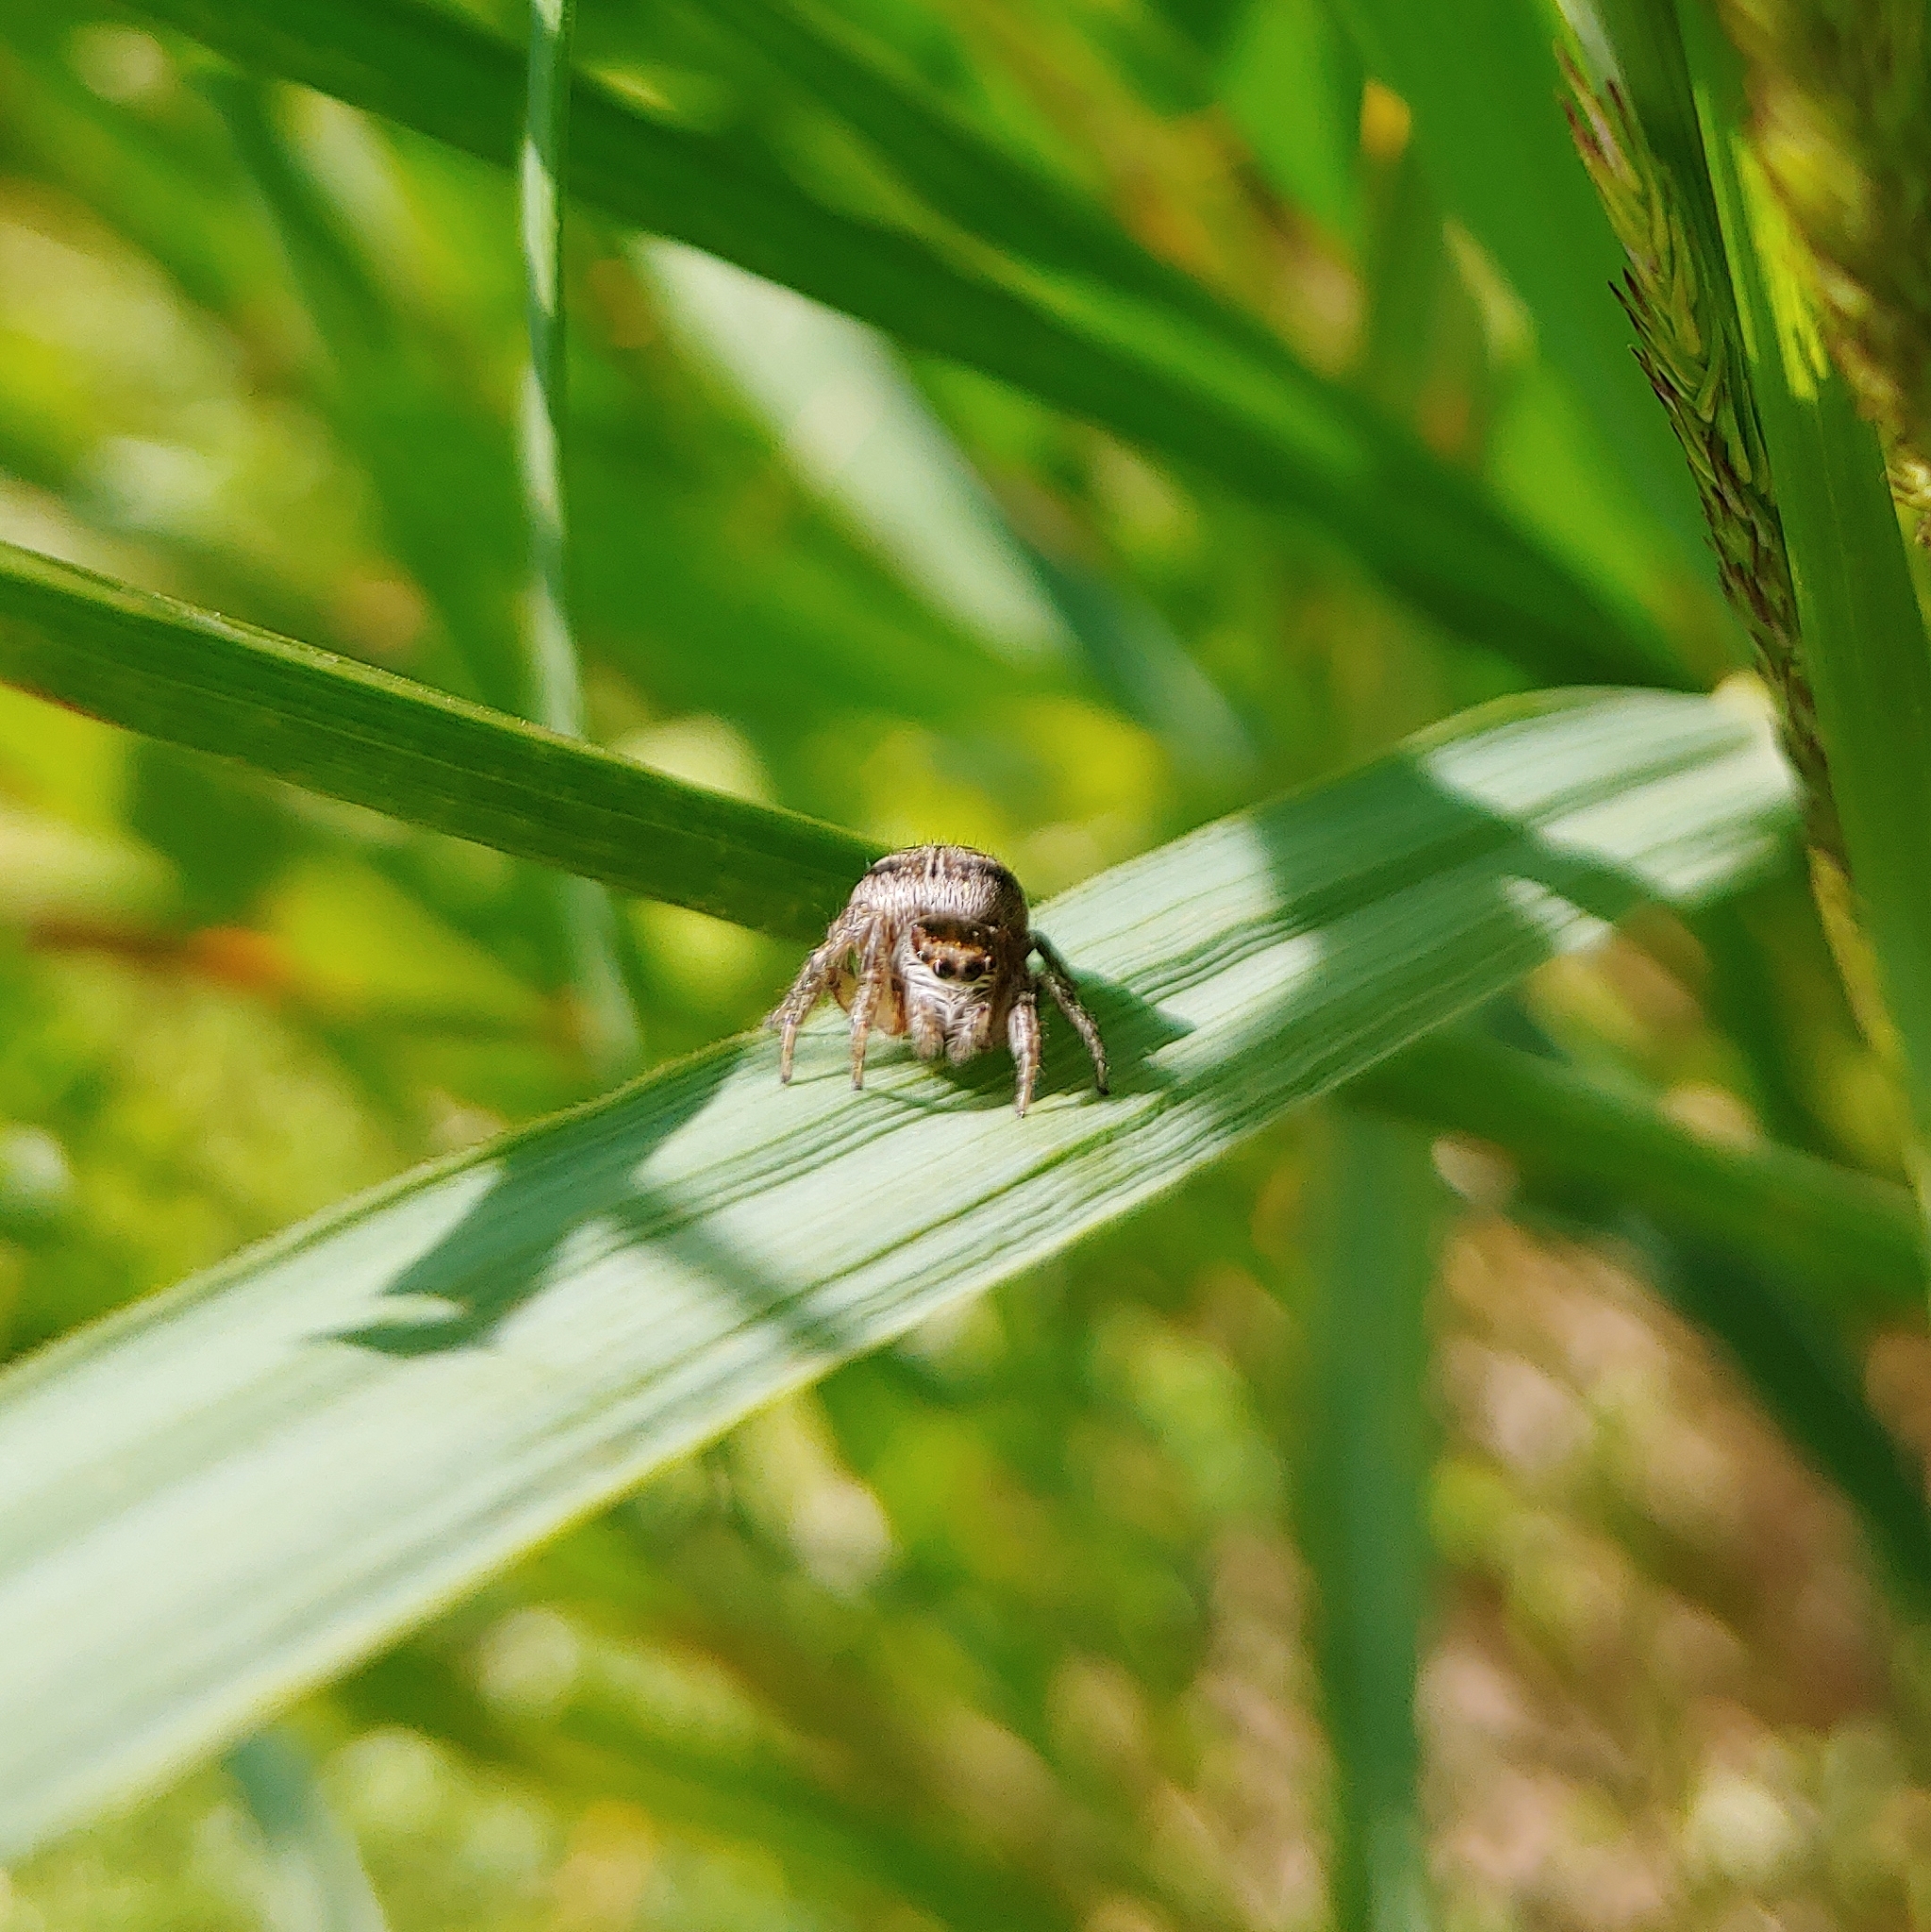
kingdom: Animalia
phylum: Arthropoda
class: Arachnida
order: Araneae
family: Salticidae
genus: Evarcha
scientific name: Evarcha arcuata
